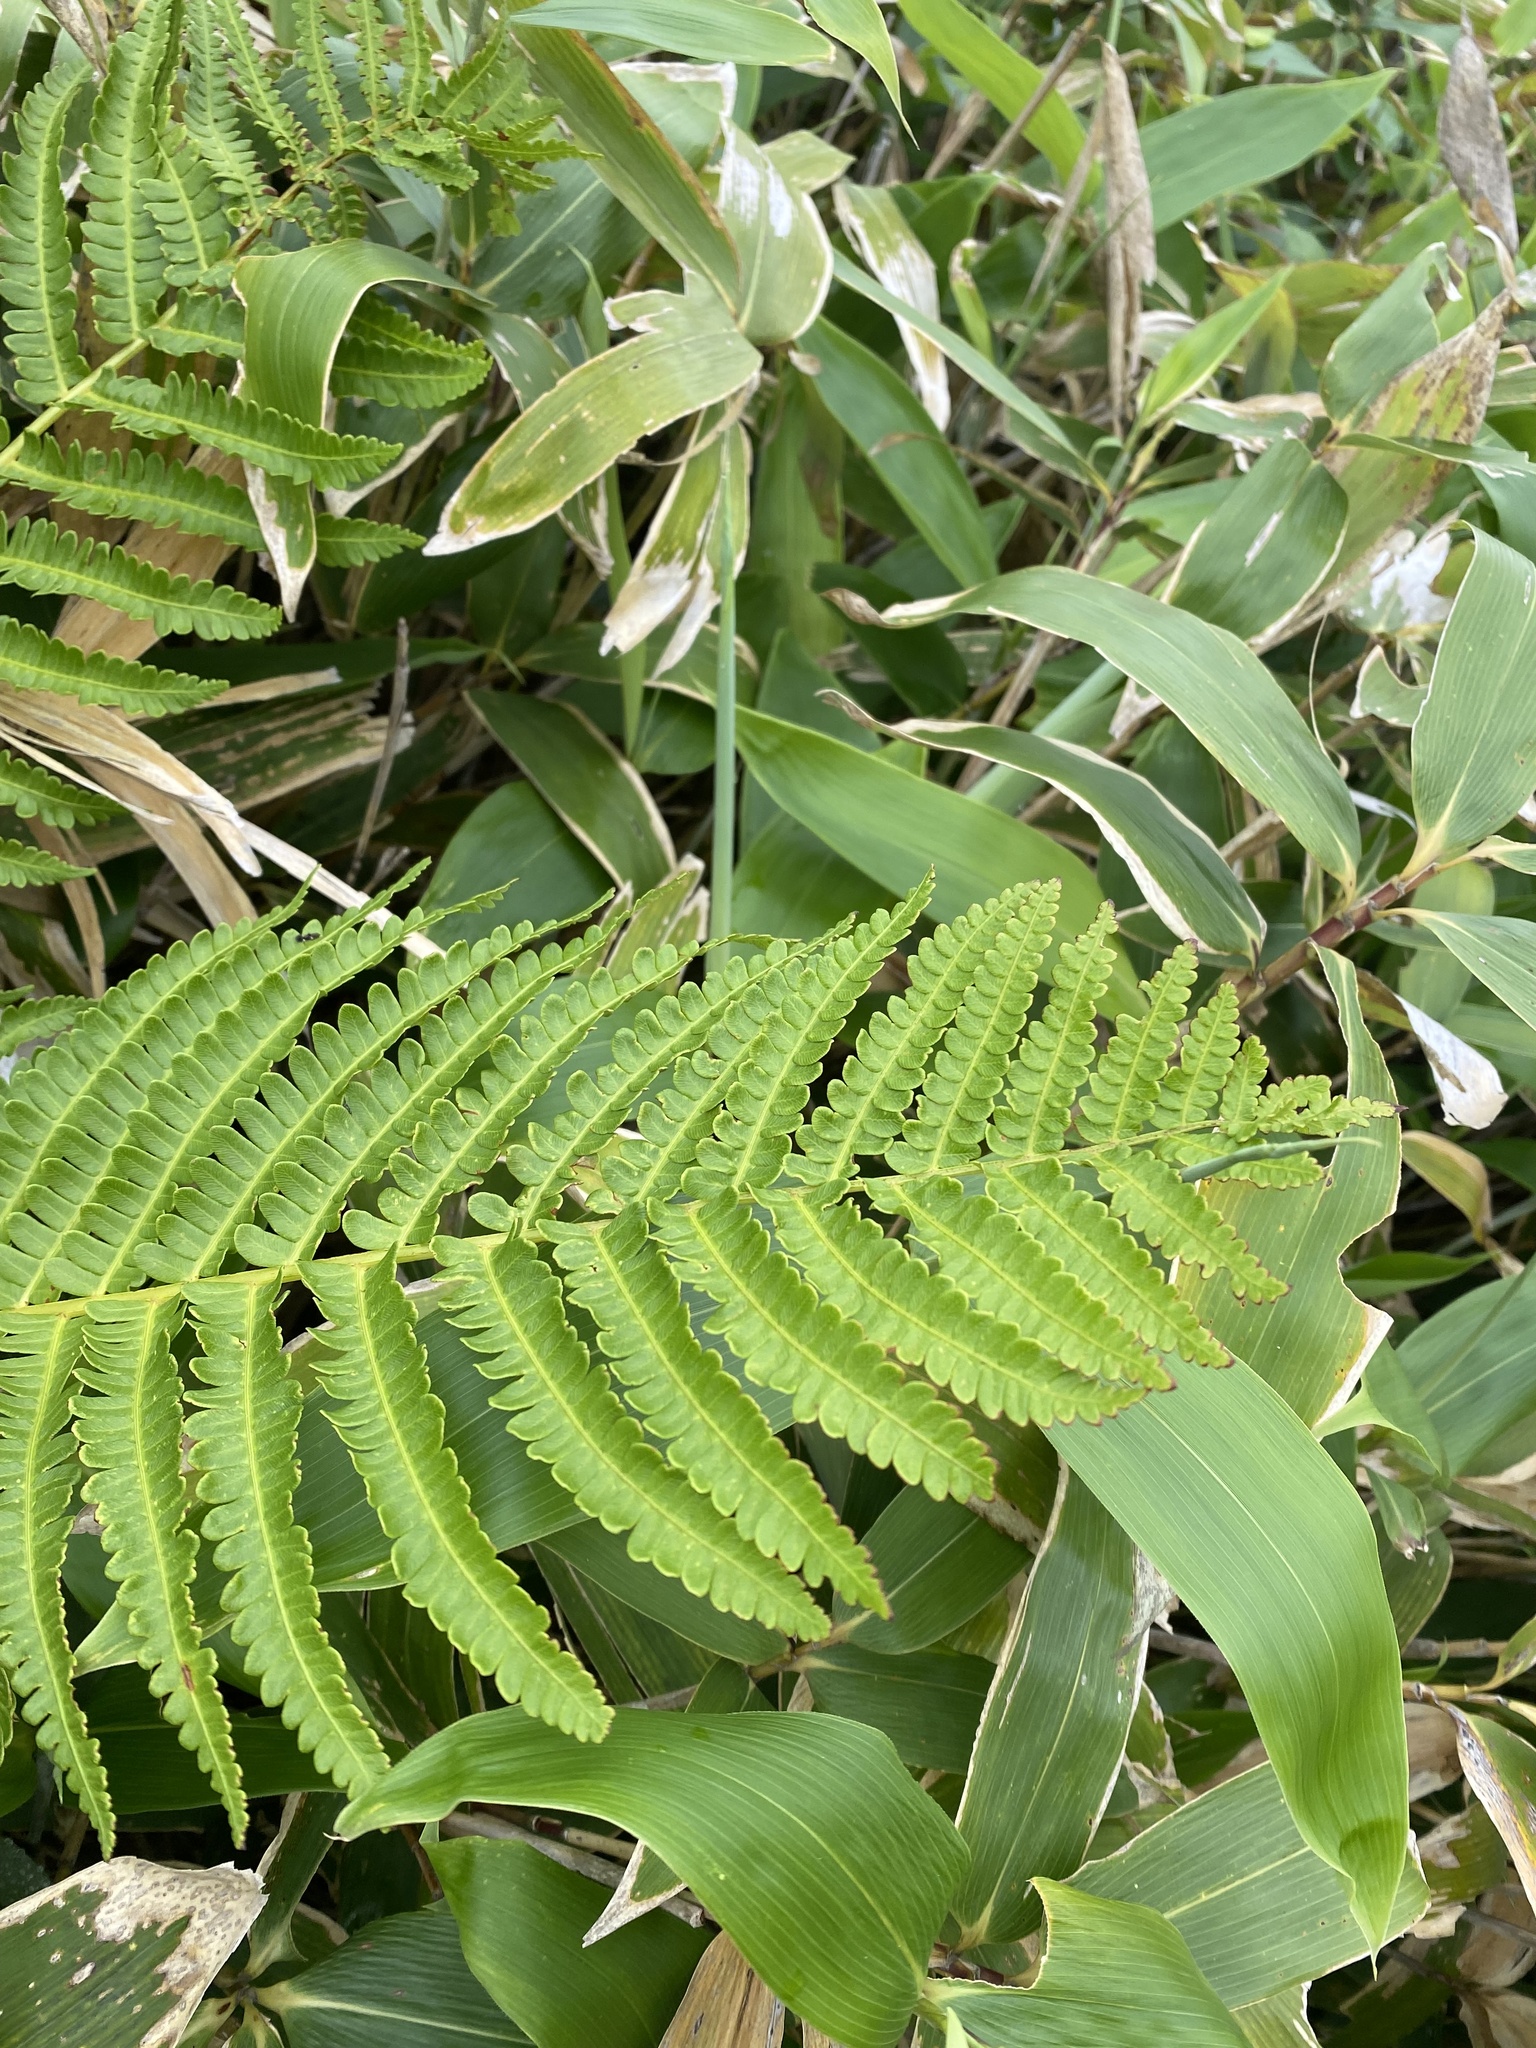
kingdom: Plantae
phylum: Tracheophyta
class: Polypodiopsida
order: Osmundales
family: Osmundaceae
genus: Osmundastrum
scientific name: Osmundastrum cinnamomeum
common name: Cinnamon fern
